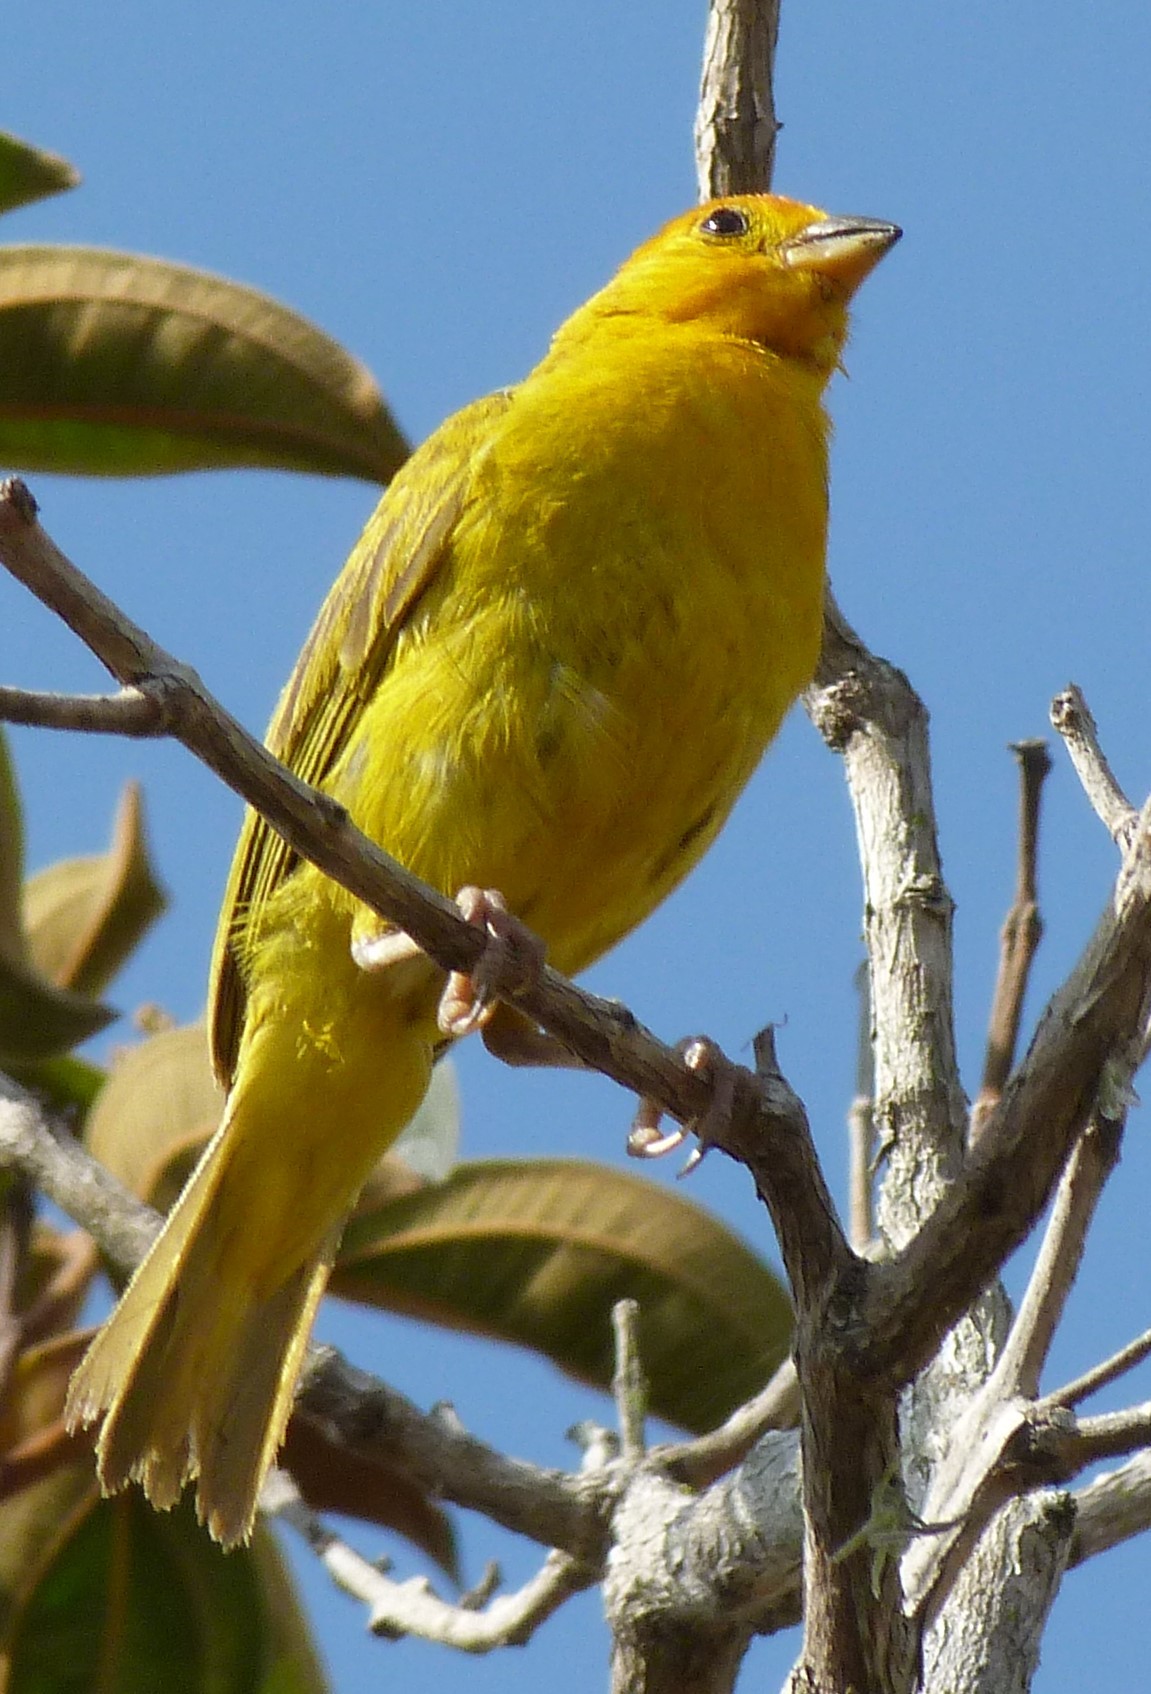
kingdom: Animalia
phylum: Chordata
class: Aves
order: Passeriformes
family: Thraupidae
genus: Sicalis
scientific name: Sicalis flaveola
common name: Saffron finch
